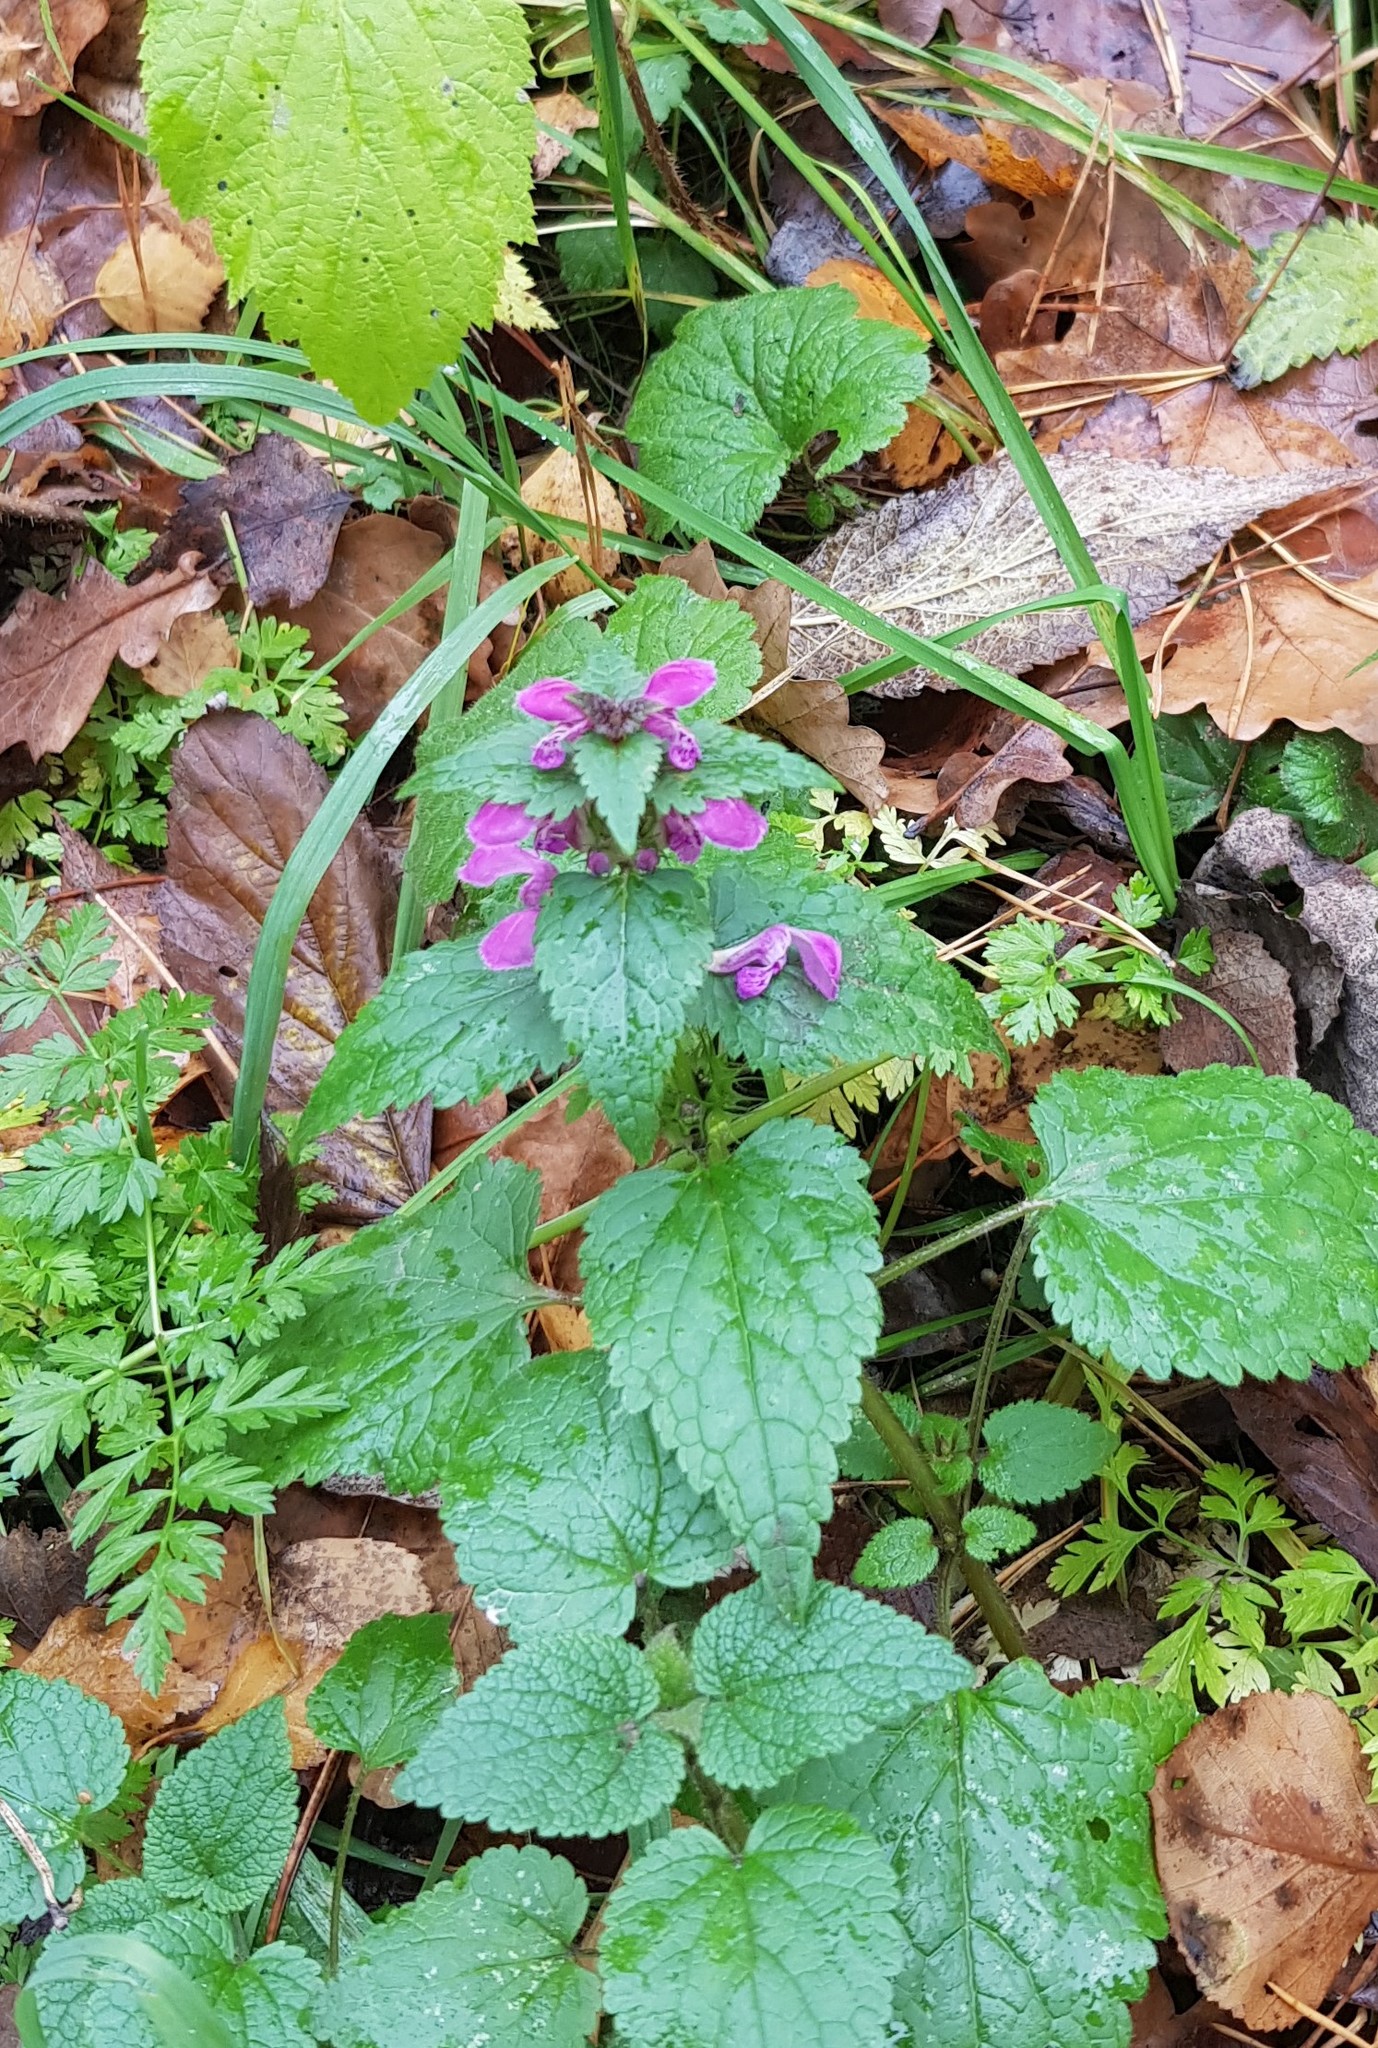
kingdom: Plantae
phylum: Tracheophyta
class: Magnoliopsida
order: Lamiales
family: Lamiaceae
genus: Lamium
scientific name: Lamium maculatum
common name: Spotted dead-nettle
